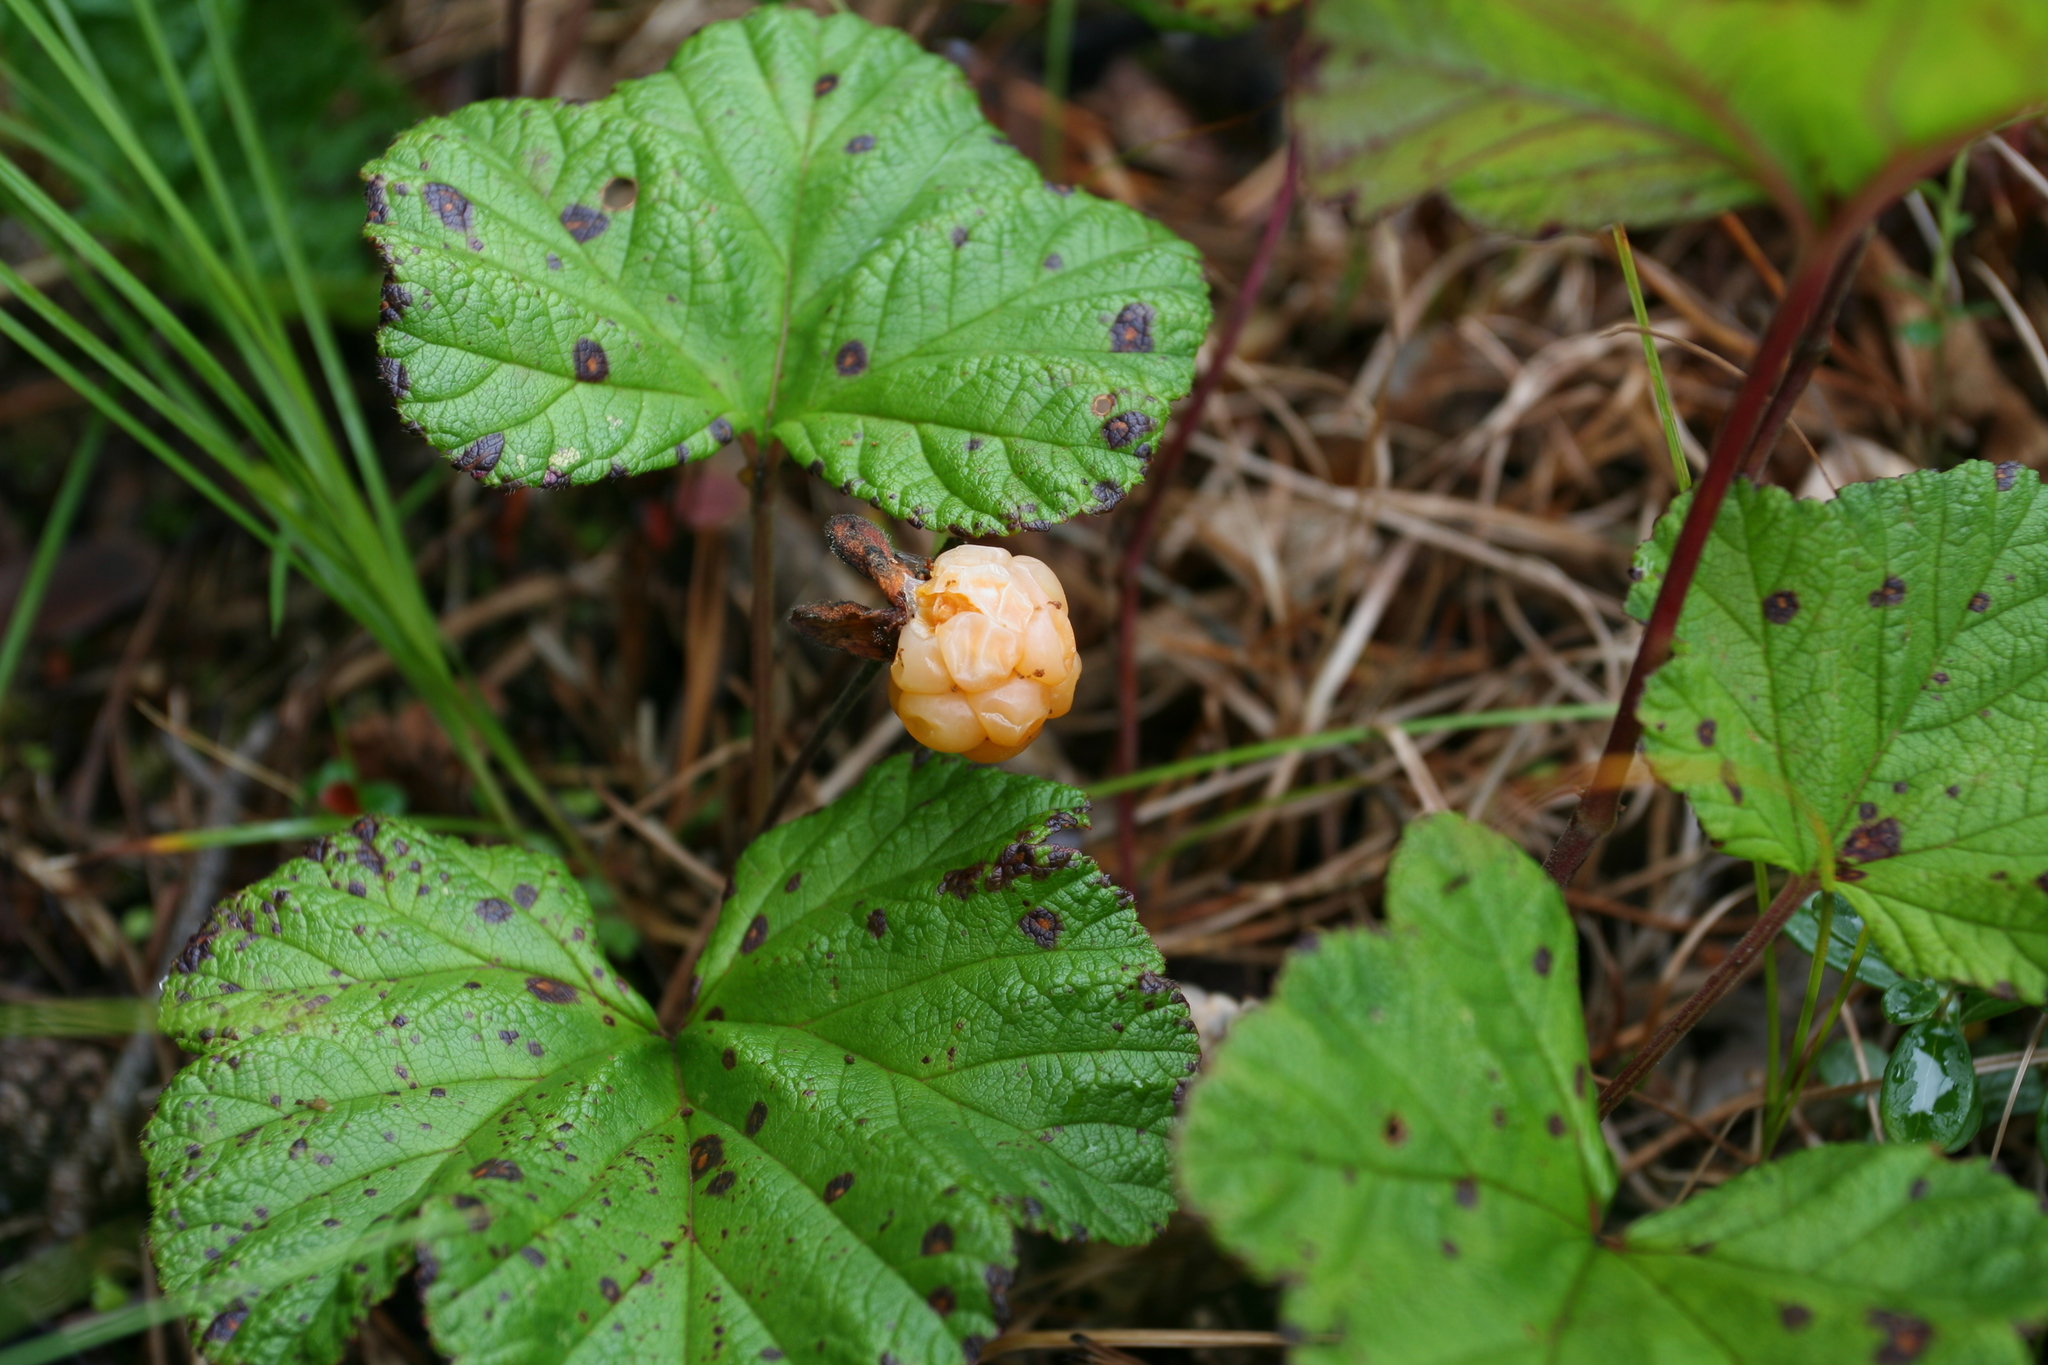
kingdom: Plantae
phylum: Tracheophyta
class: Magnoliopsida
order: Rosales
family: Rosaceae
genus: Rubus
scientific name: Rubus chamaemorus
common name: Cloudberry
